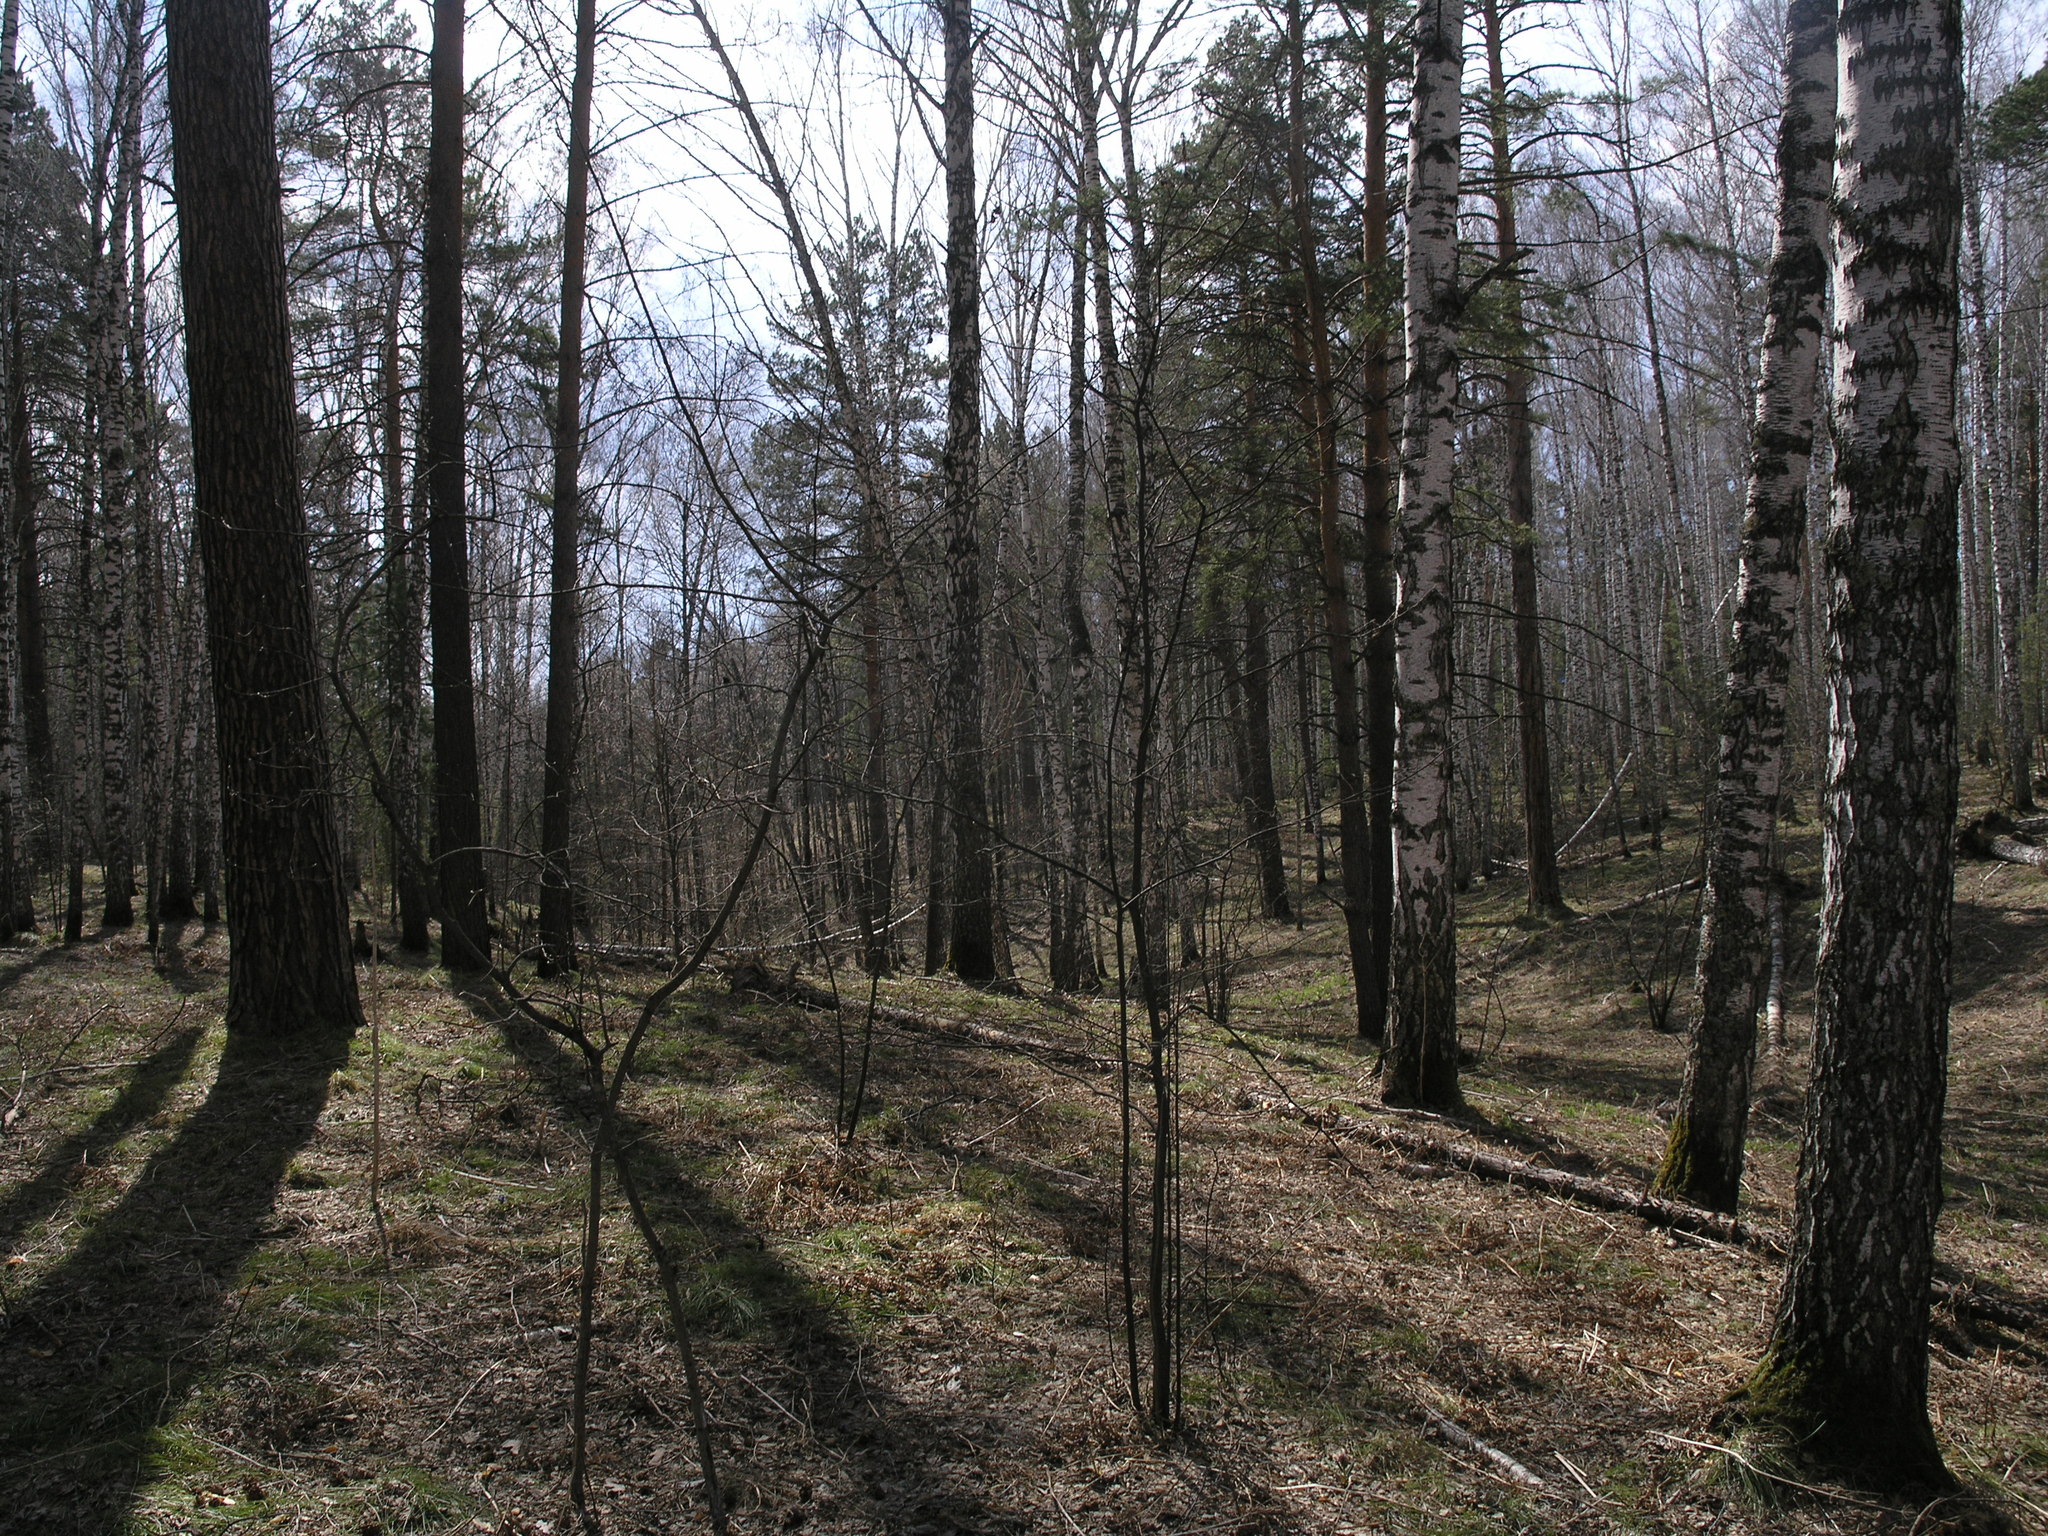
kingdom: Plantae
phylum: Tracheophyta
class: Magnoliopsida
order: Fagales
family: Betulaceae
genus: Betula
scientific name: Betula pendula
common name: Silver birch
